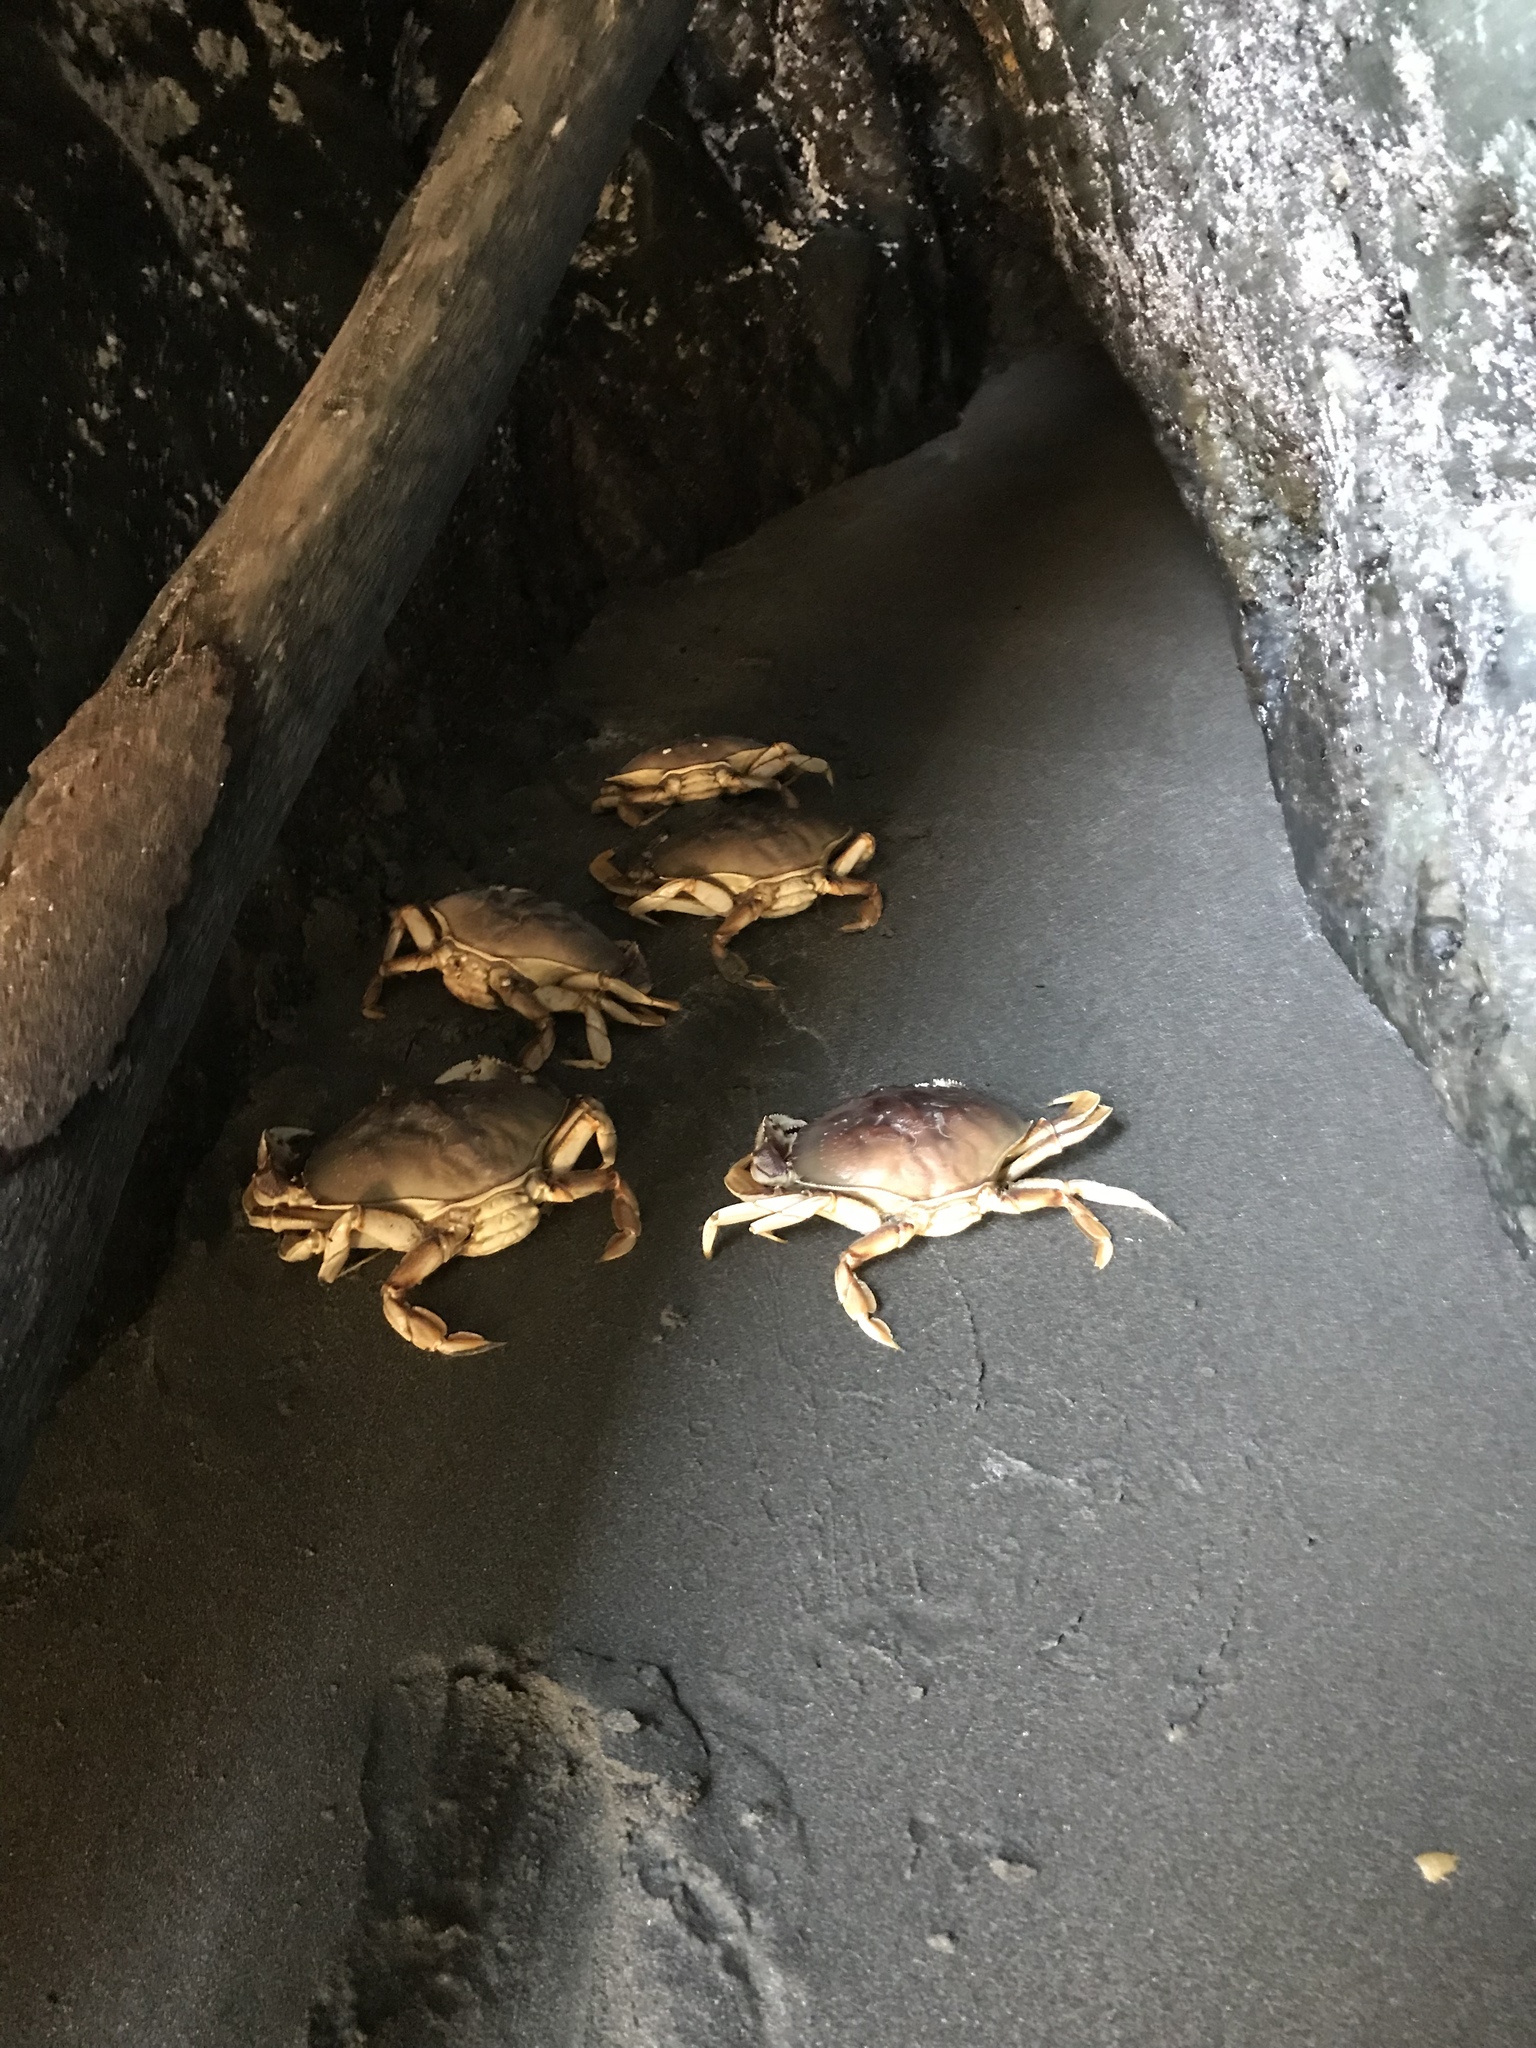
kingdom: Animalia
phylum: Arthropoda
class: Malacostraca
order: Decapoda
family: Cancridae
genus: Metacarcinus
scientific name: Metacarcinus gracilis
